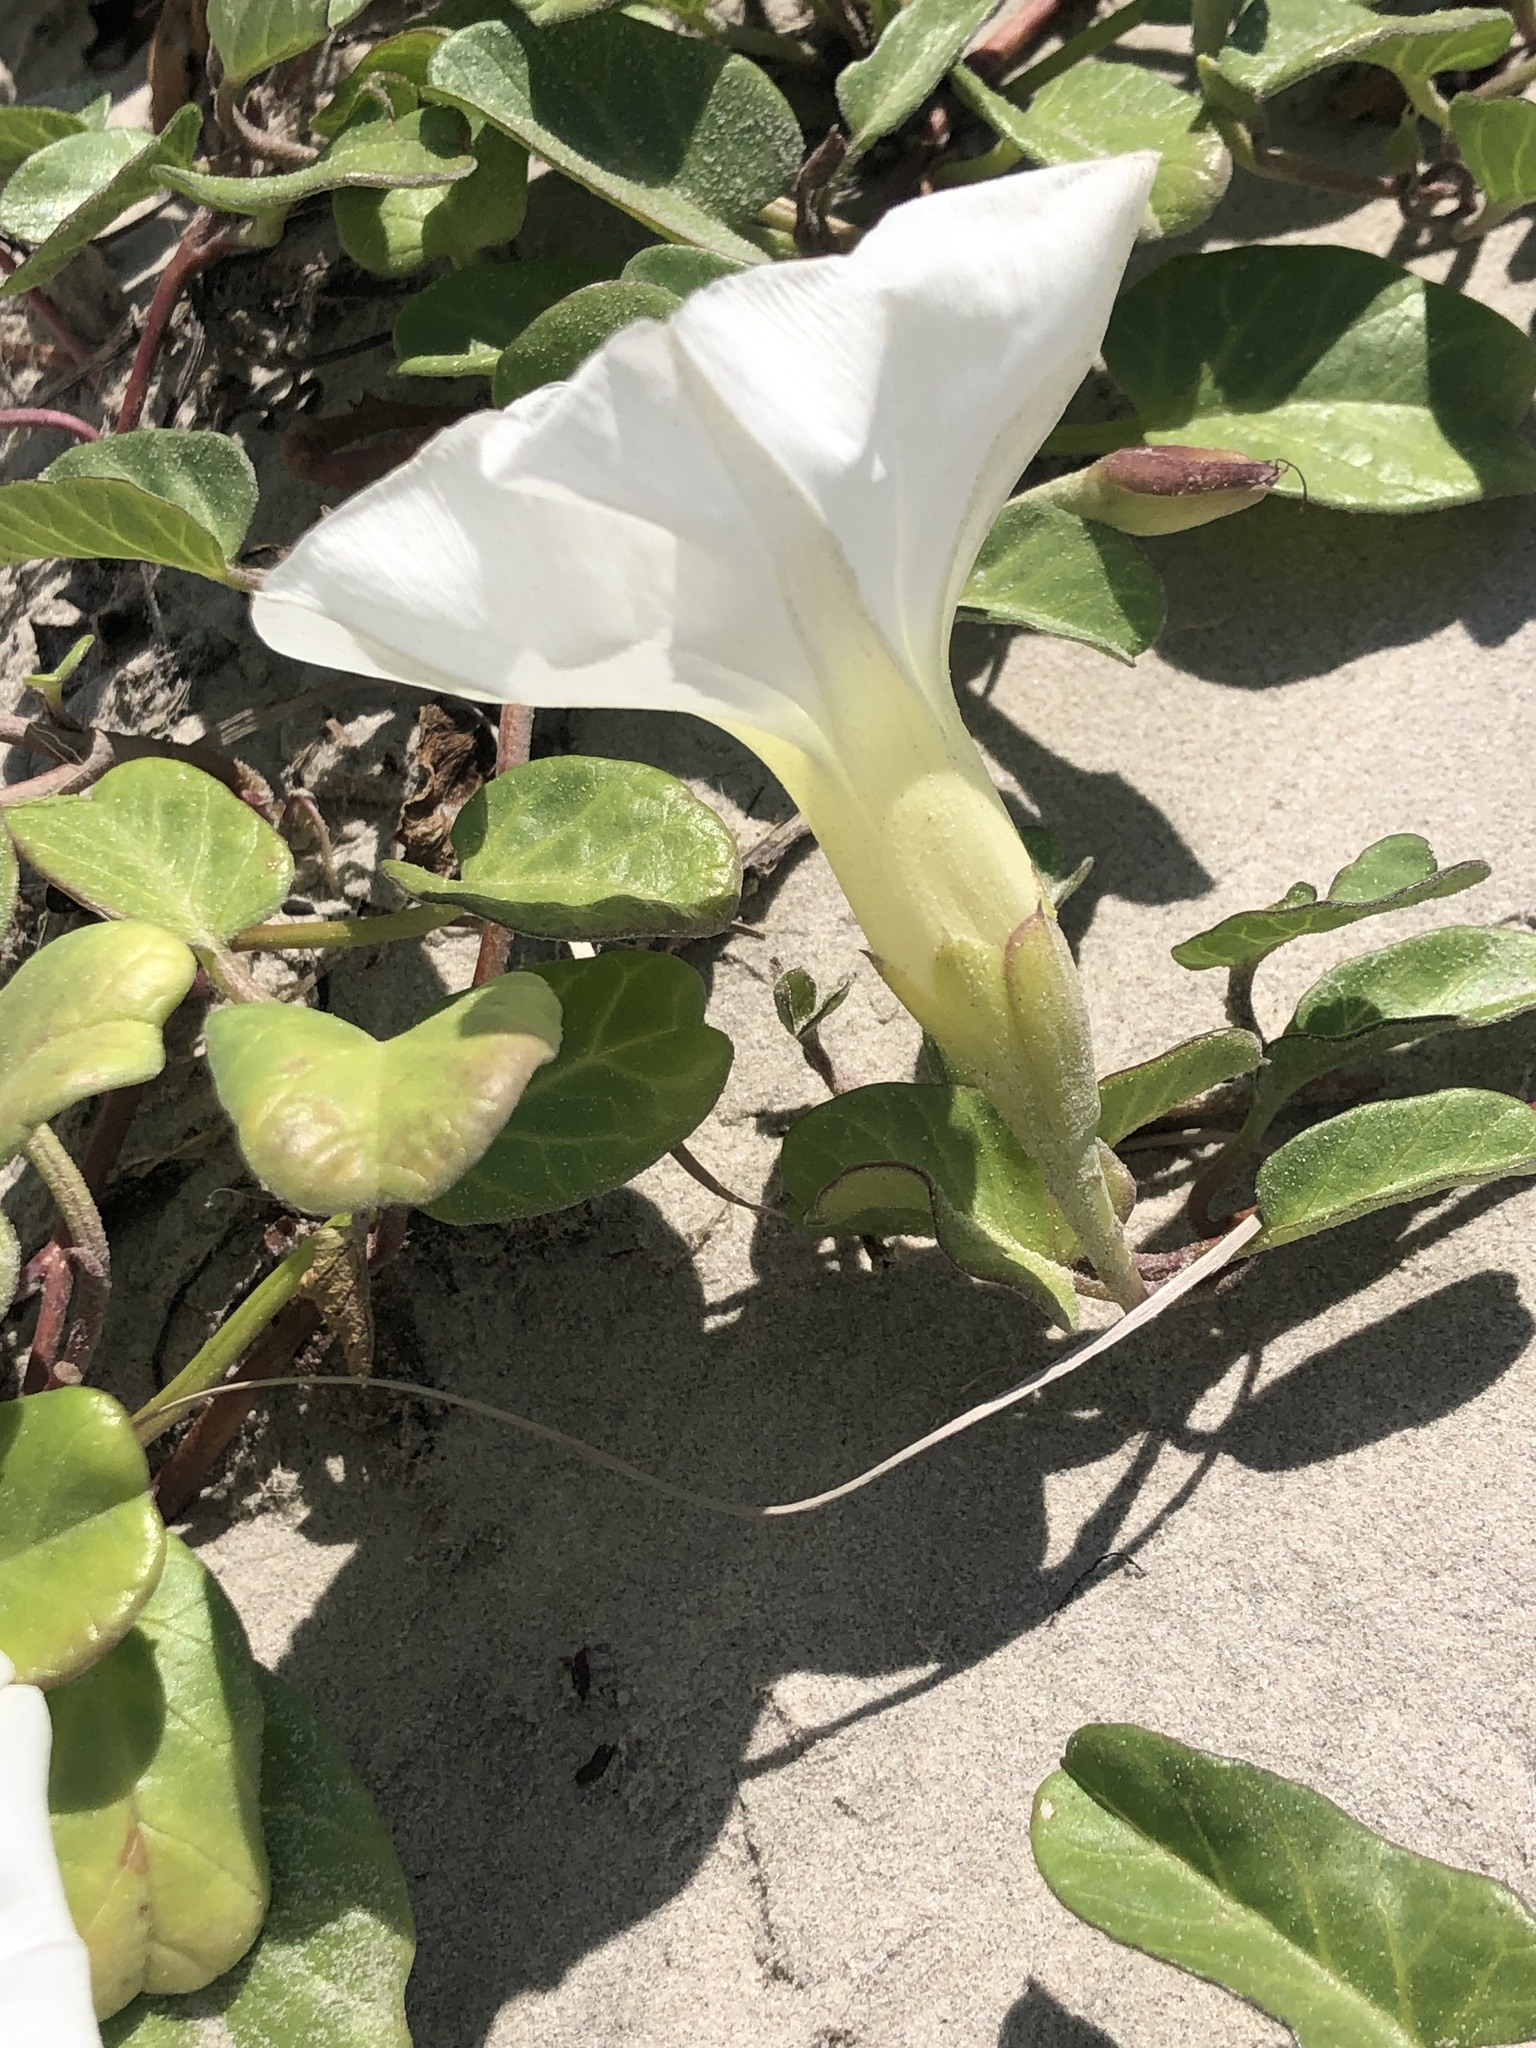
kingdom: Plantae
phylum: Tracheophyta
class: Magnoliopsida
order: Solanales
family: Convolvulaceae
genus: Ipomoea
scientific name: Ipomoea imperati
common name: Fiddle-leaf morning-glory
